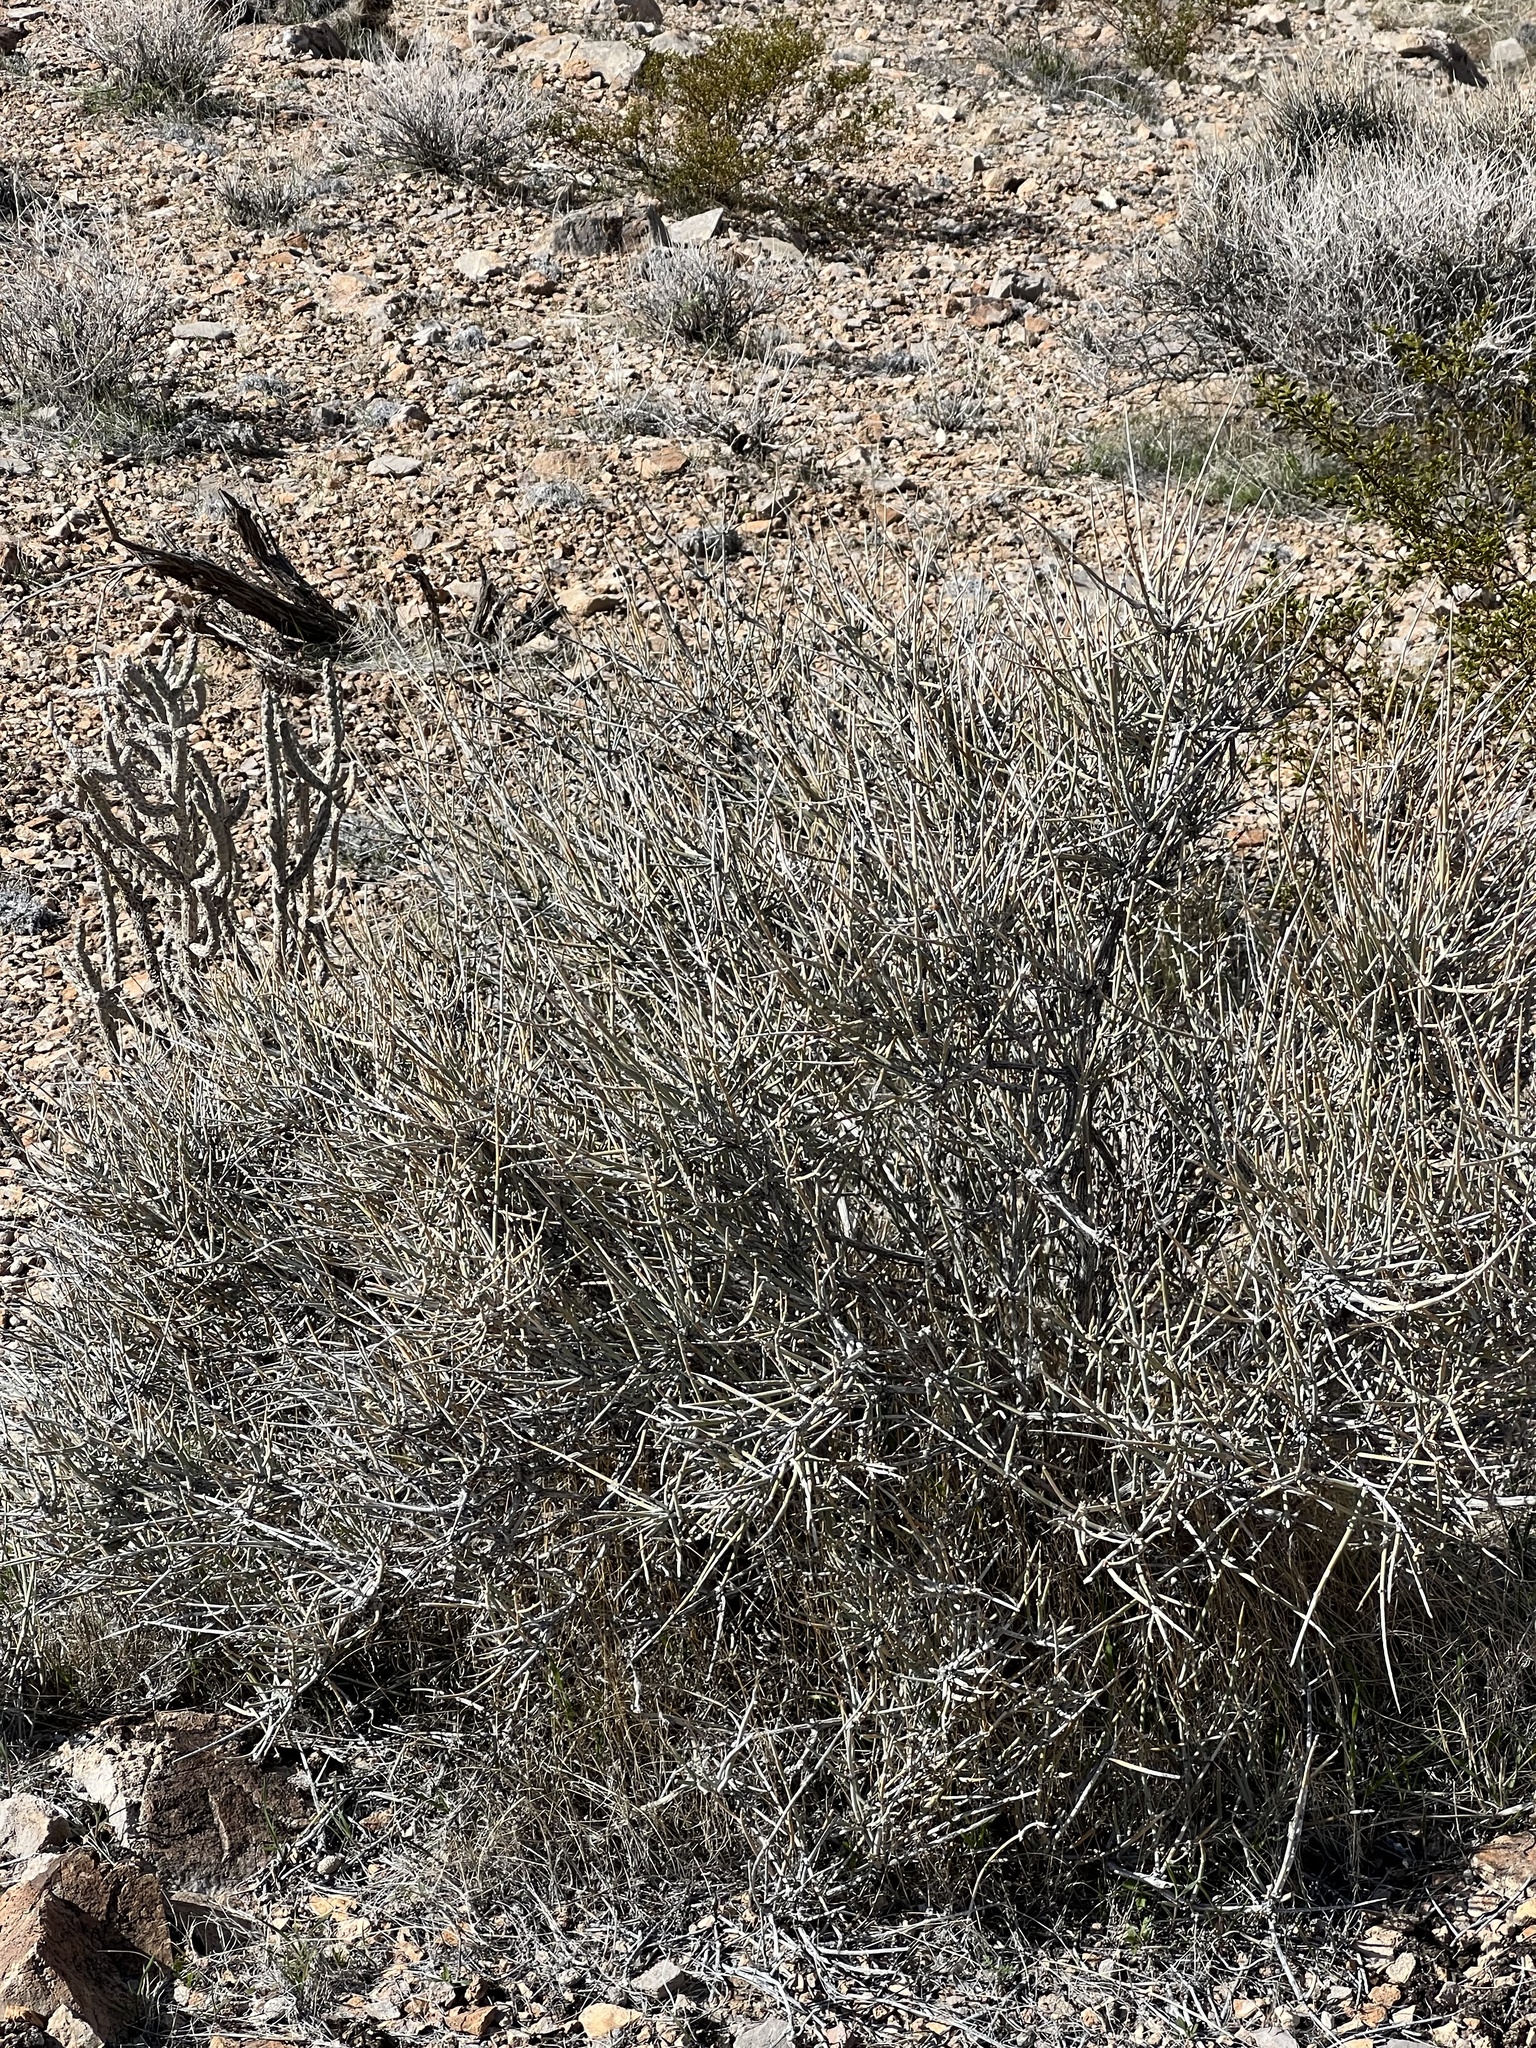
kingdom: Plantae
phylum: Tracheophyta
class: Gnetopsida
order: Ephedrales
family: Ephedraceae
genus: Ephedra
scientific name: Ephedra nevadensis
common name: Gray ephedra
